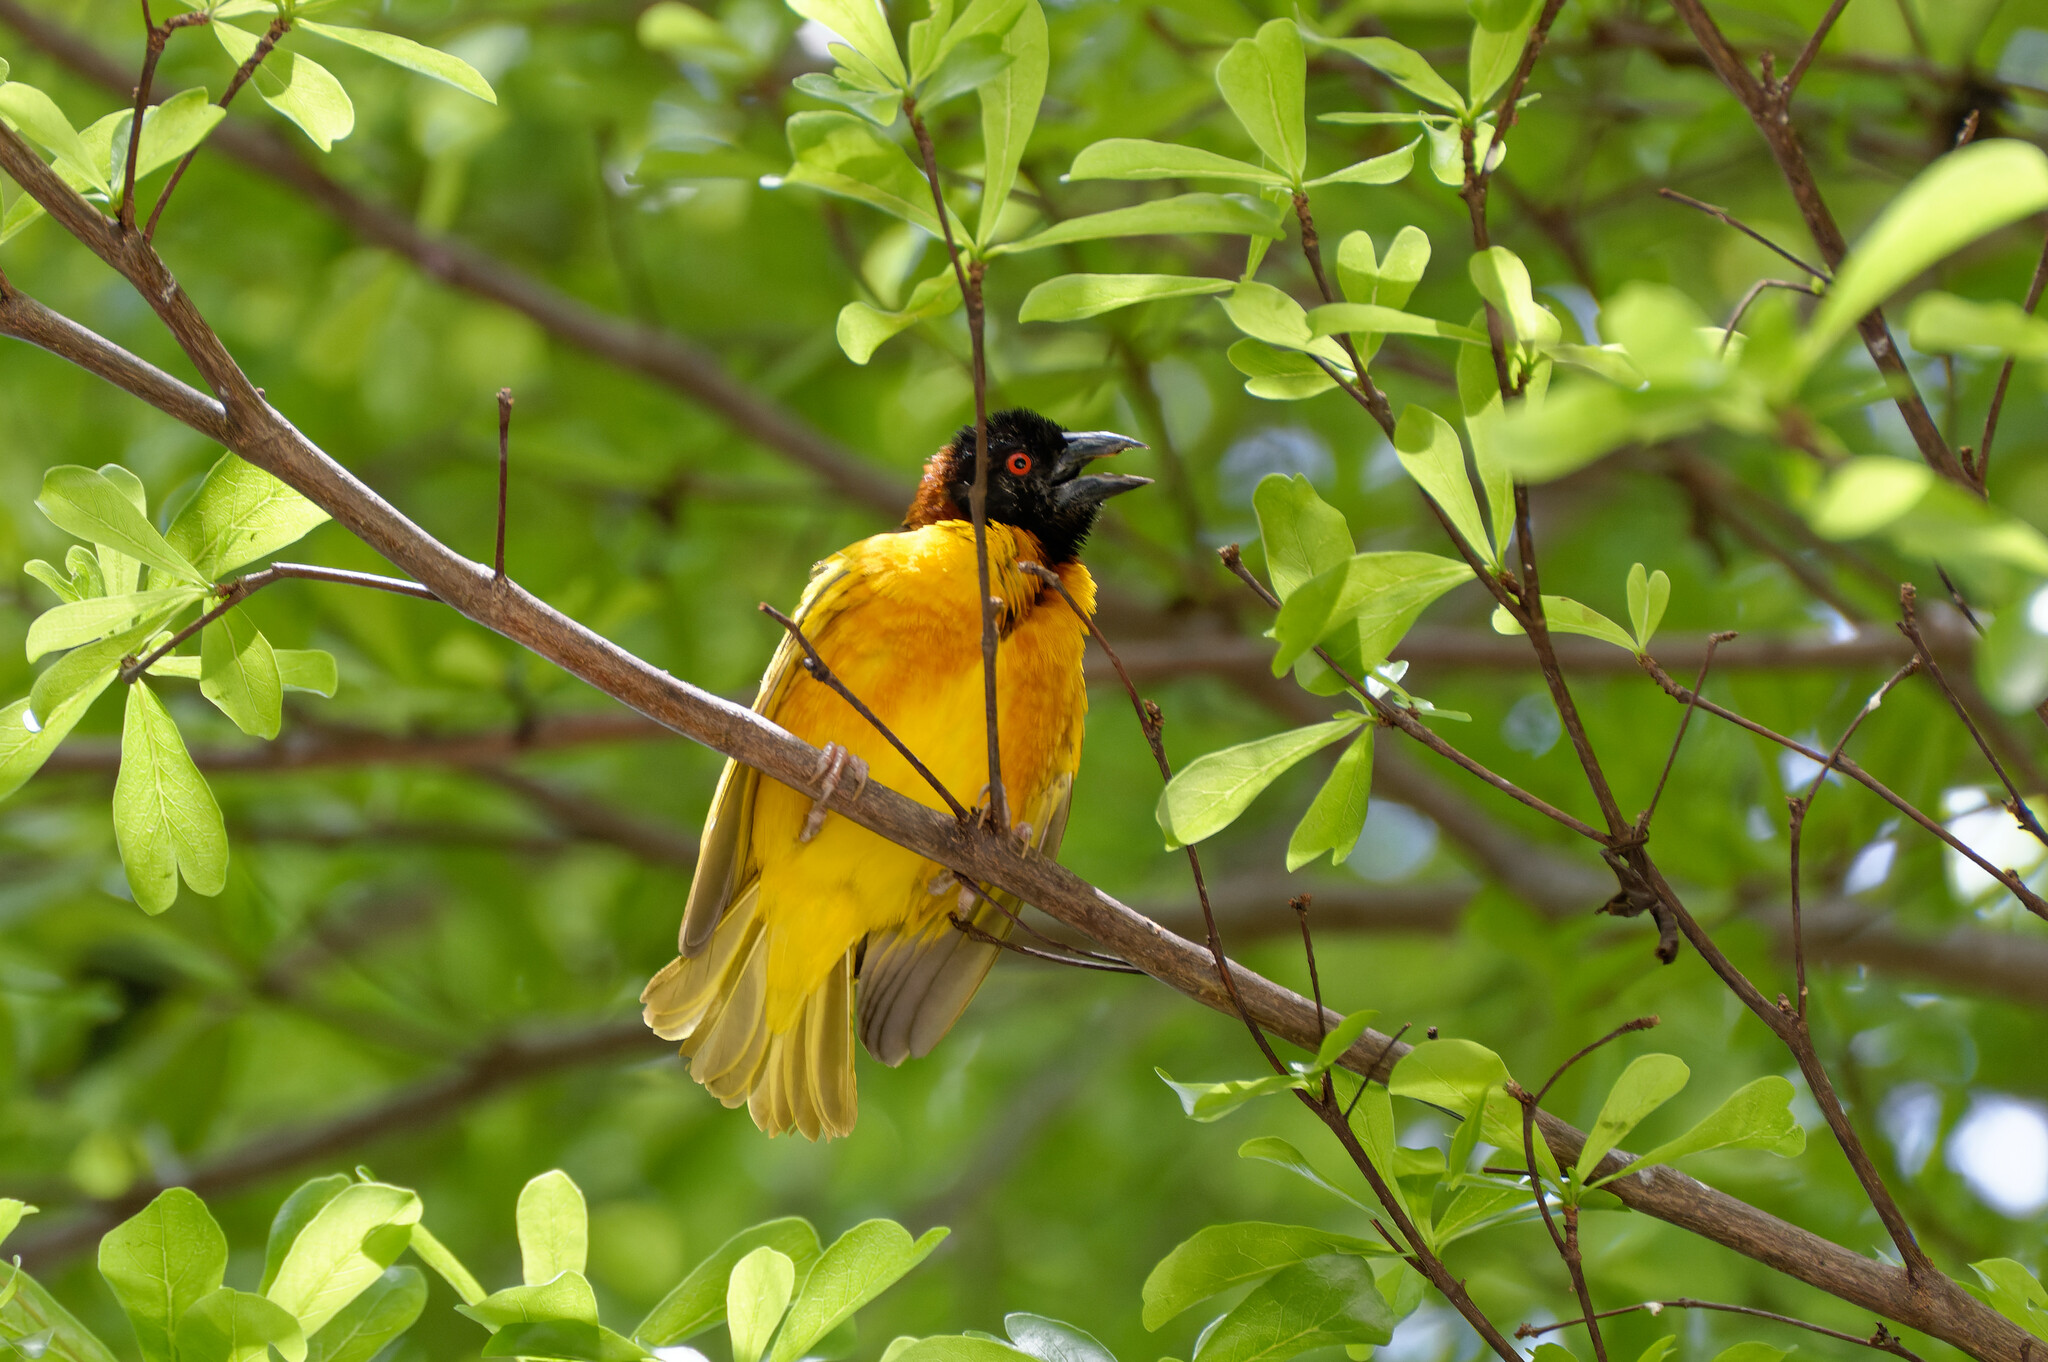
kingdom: Animalia
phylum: Chordata
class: Aves
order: Passeriformes
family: Ploceidae
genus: Ploceus
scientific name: Ploceus cucullatus
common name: Village weaver
